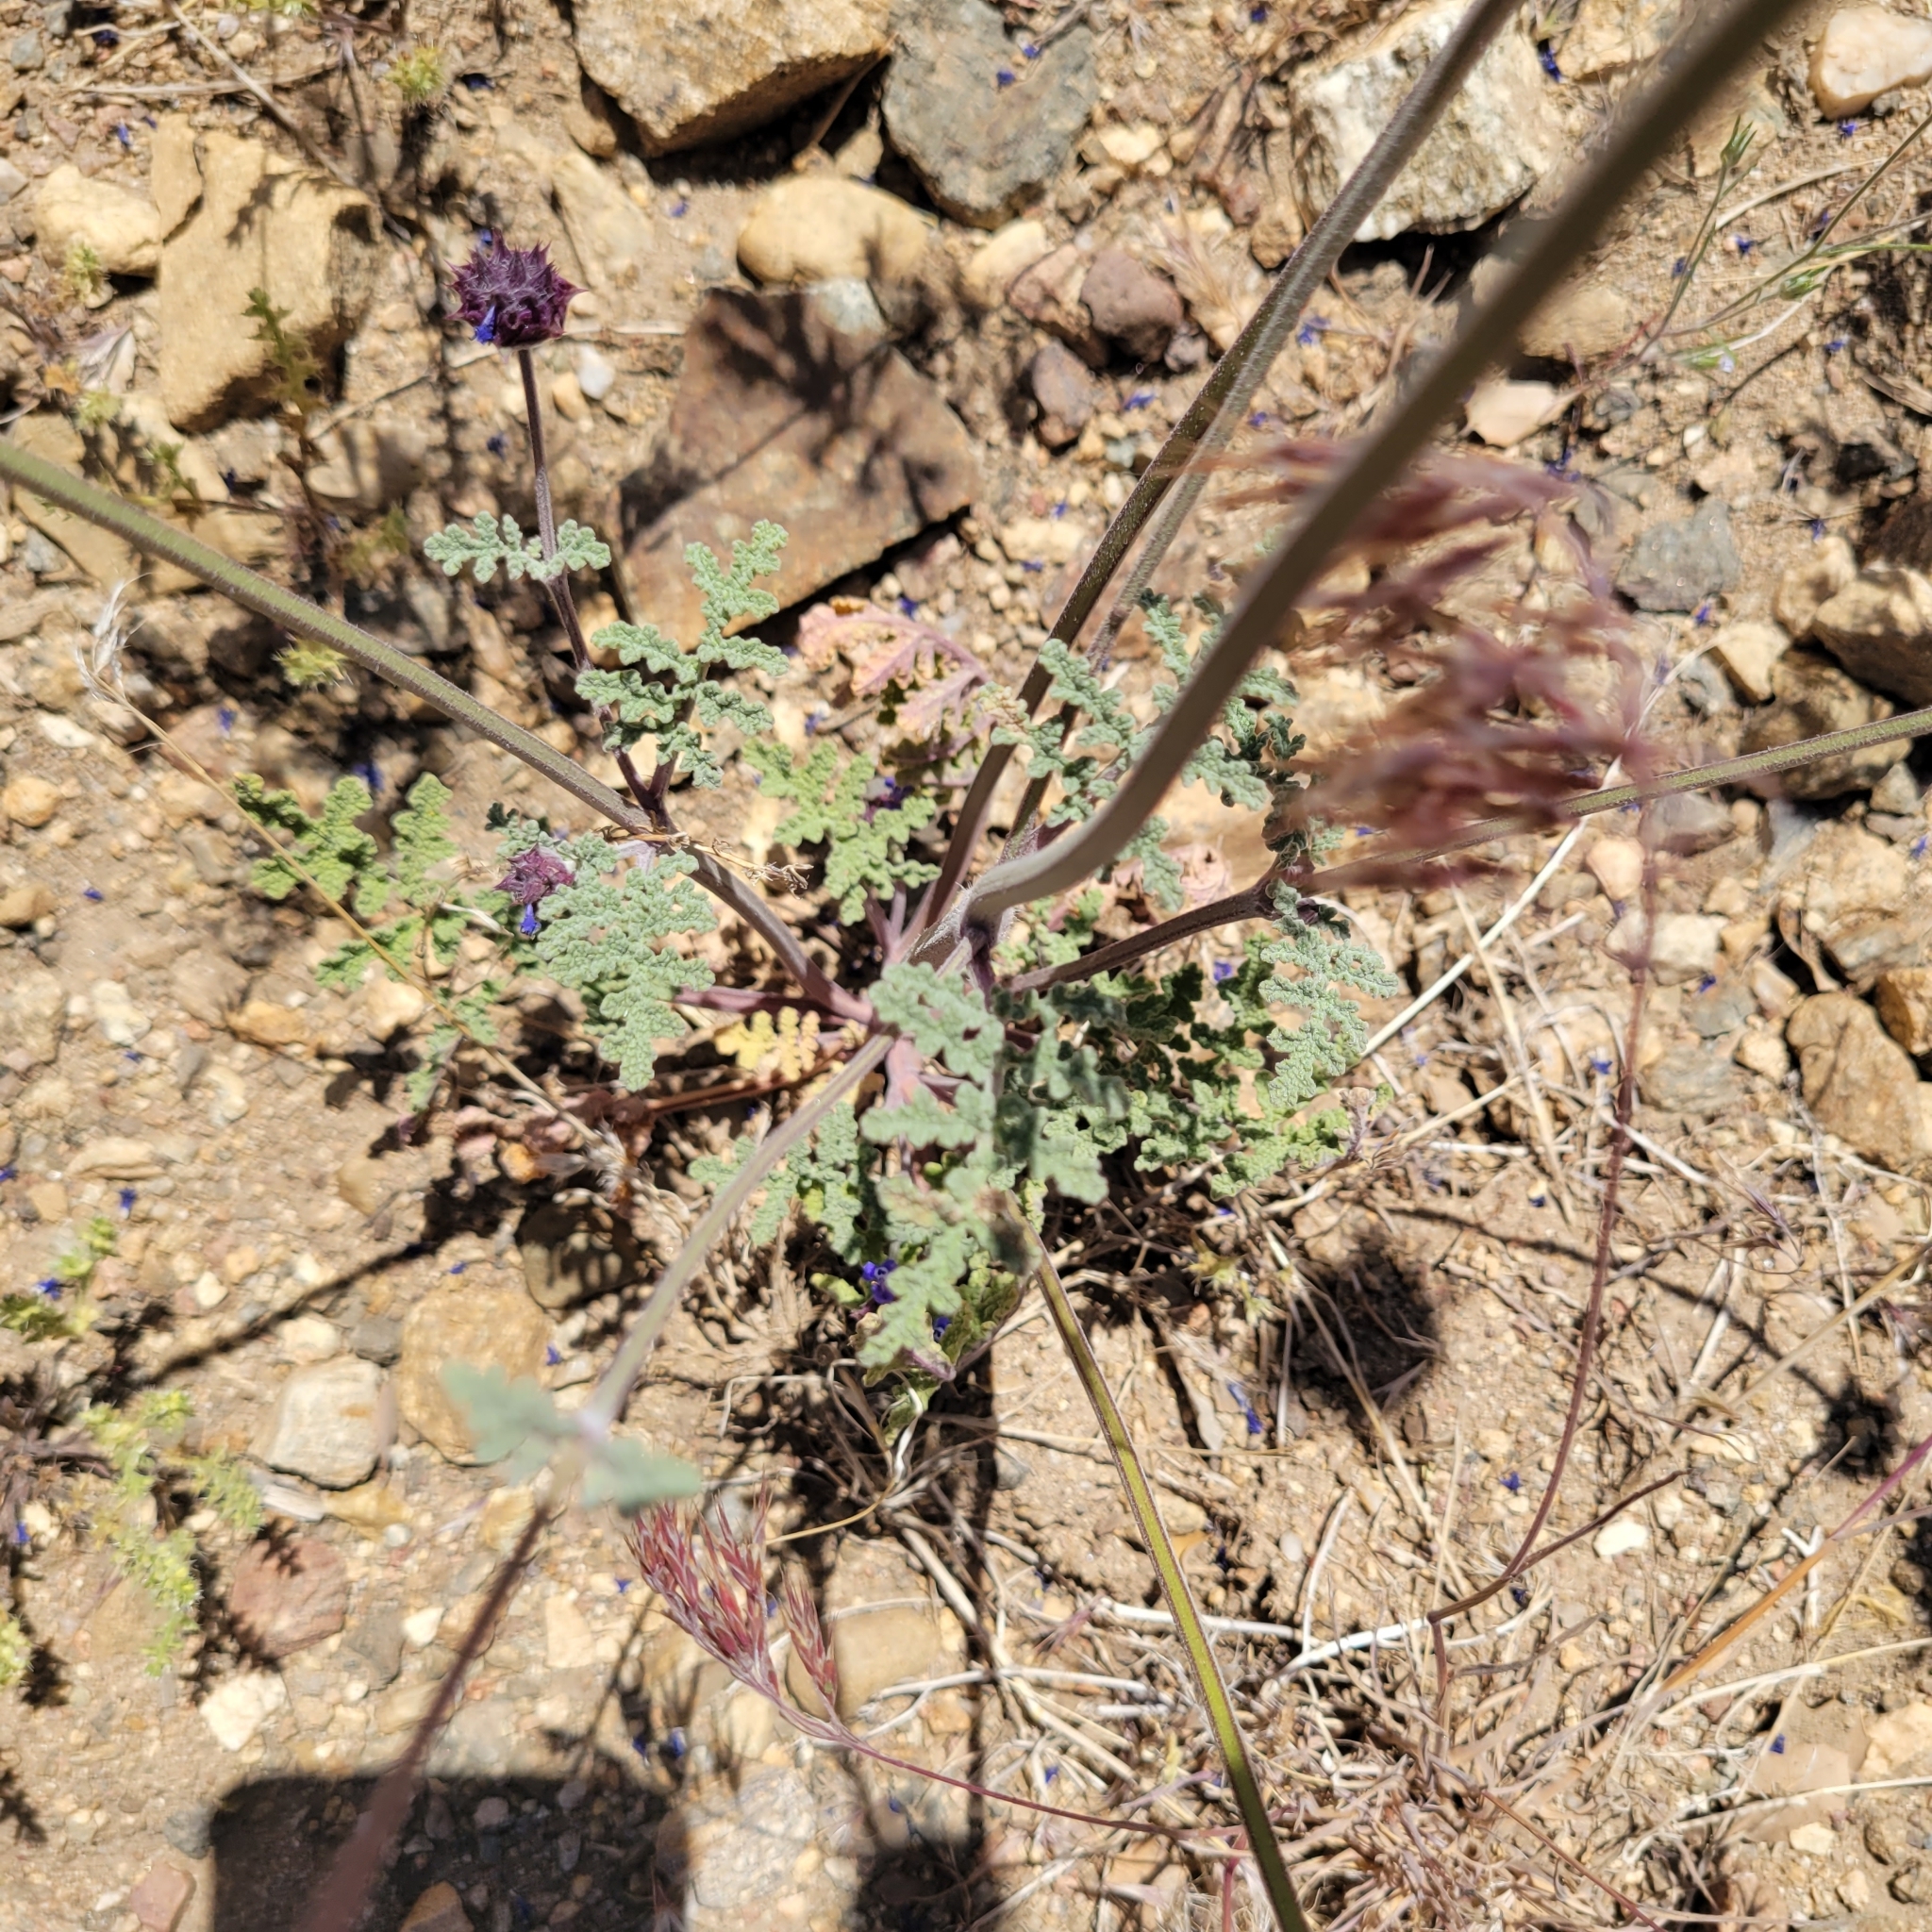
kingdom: Plantae
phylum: Tracheophyta
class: Magnoliopsida
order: Lamiales
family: Lamiaceae
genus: Salvia
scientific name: Salvia columbariae
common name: Chia
